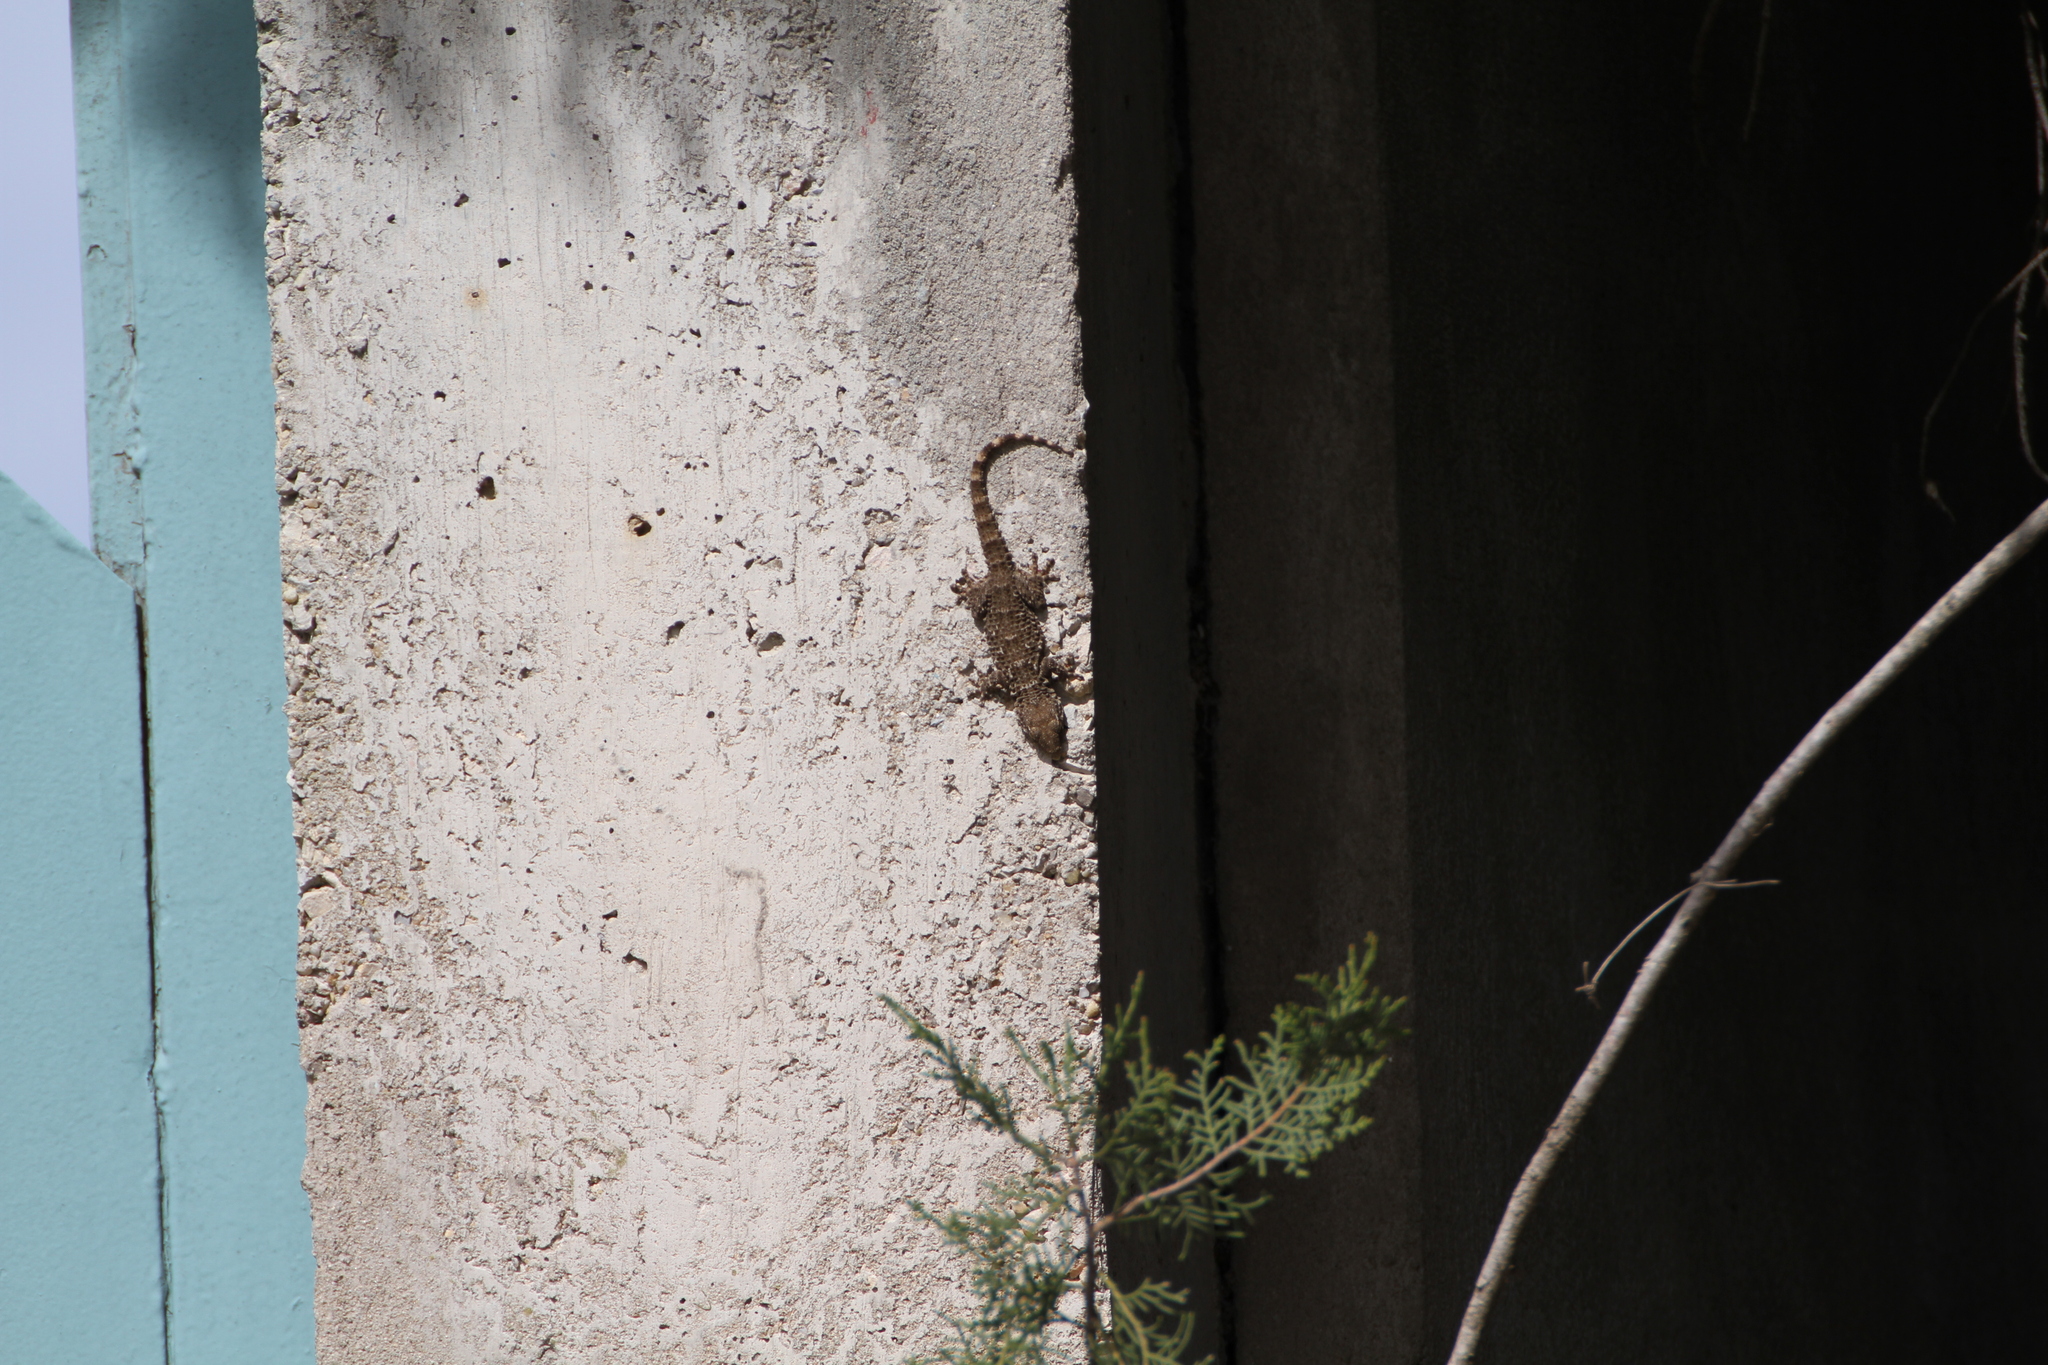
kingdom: Animalia
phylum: Chordata
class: Squamata
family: Phyllodactylidae
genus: Tarentola
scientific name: Tarentola mauritanica
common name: Moorish gecko
